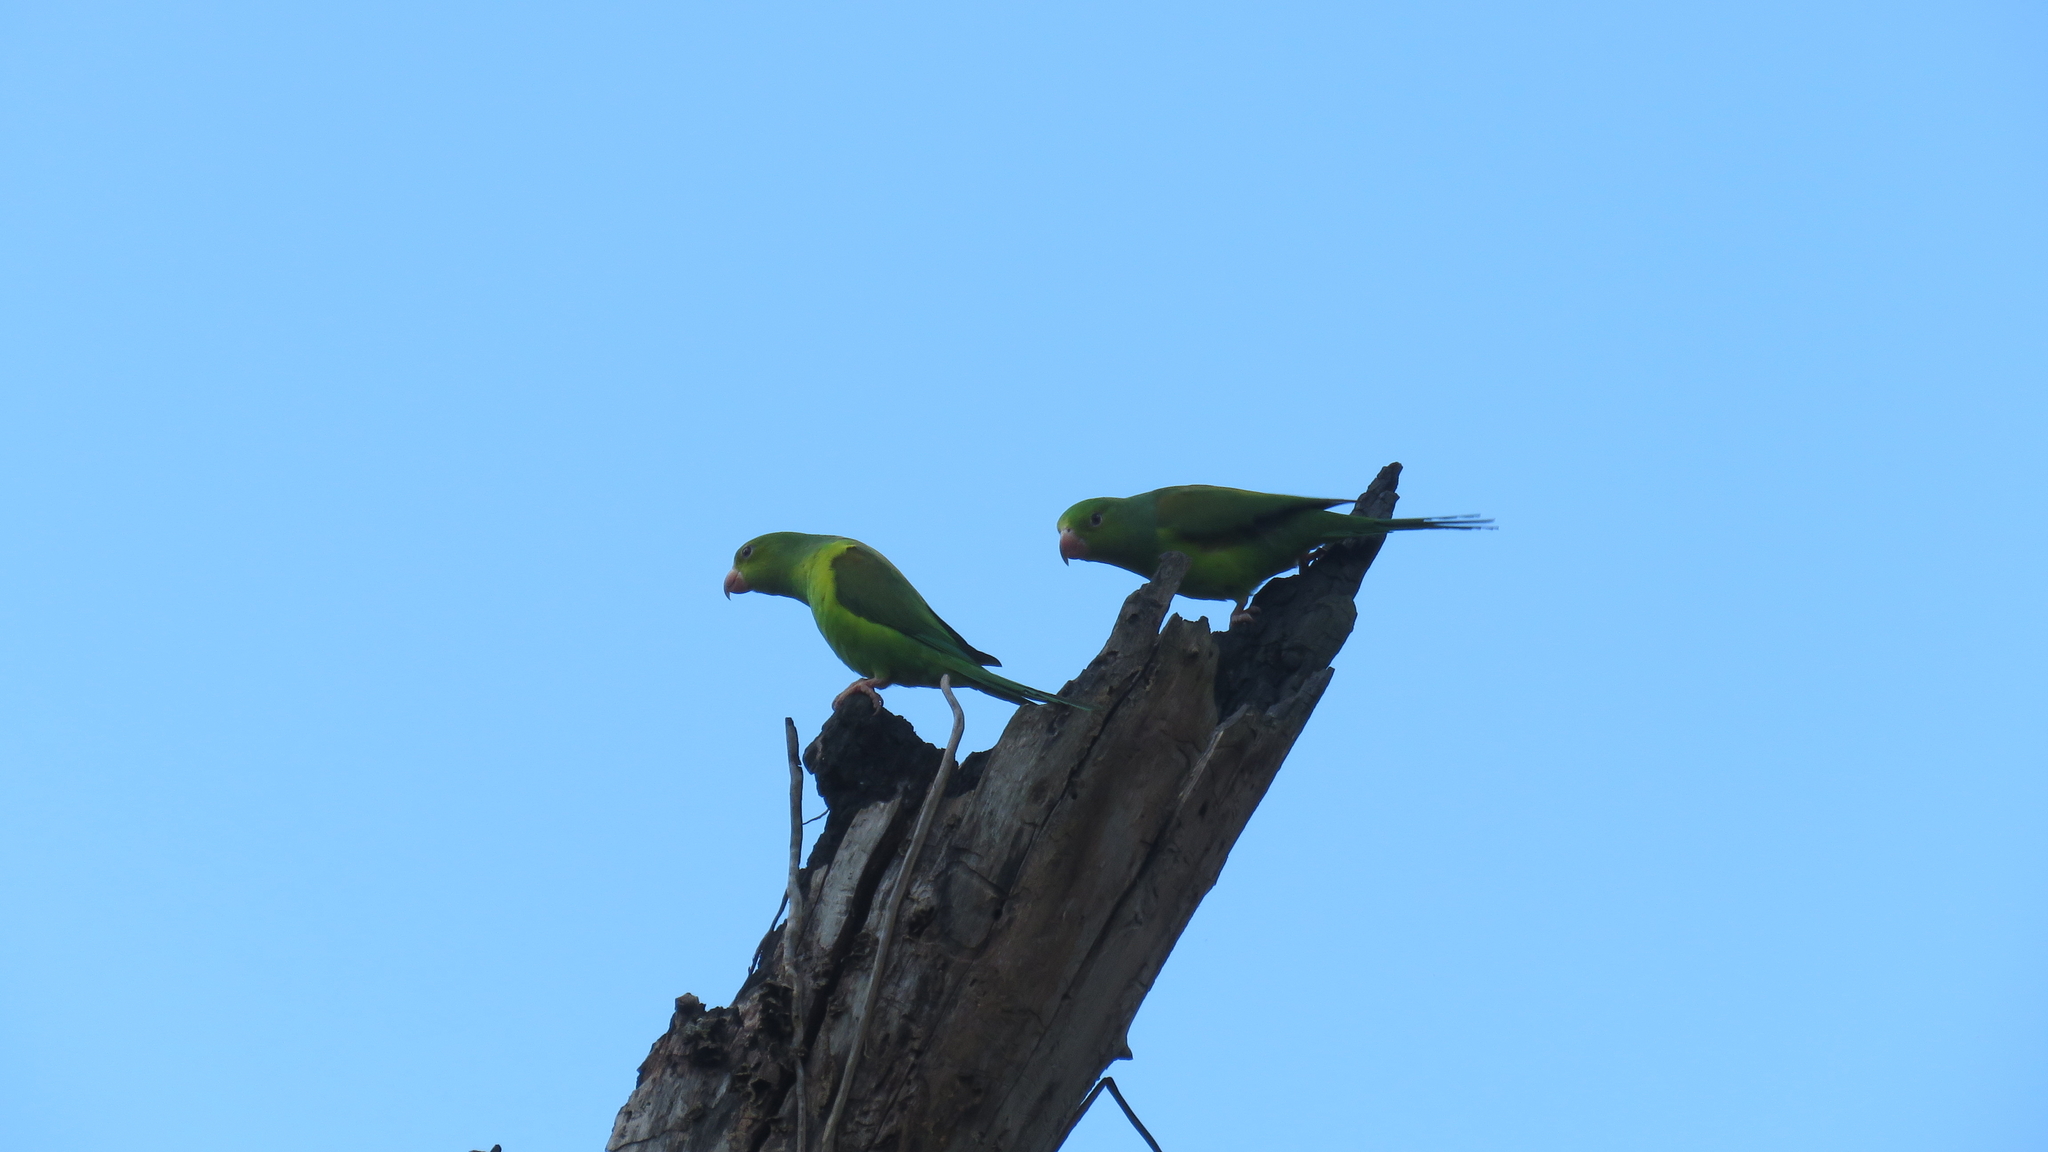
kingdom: Animalia
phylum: Chordata
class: Aves
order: Psittaciformes
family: Psittacidae
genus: Brotogeris
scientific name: Brotogeris tirica
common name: Plain parakeet
